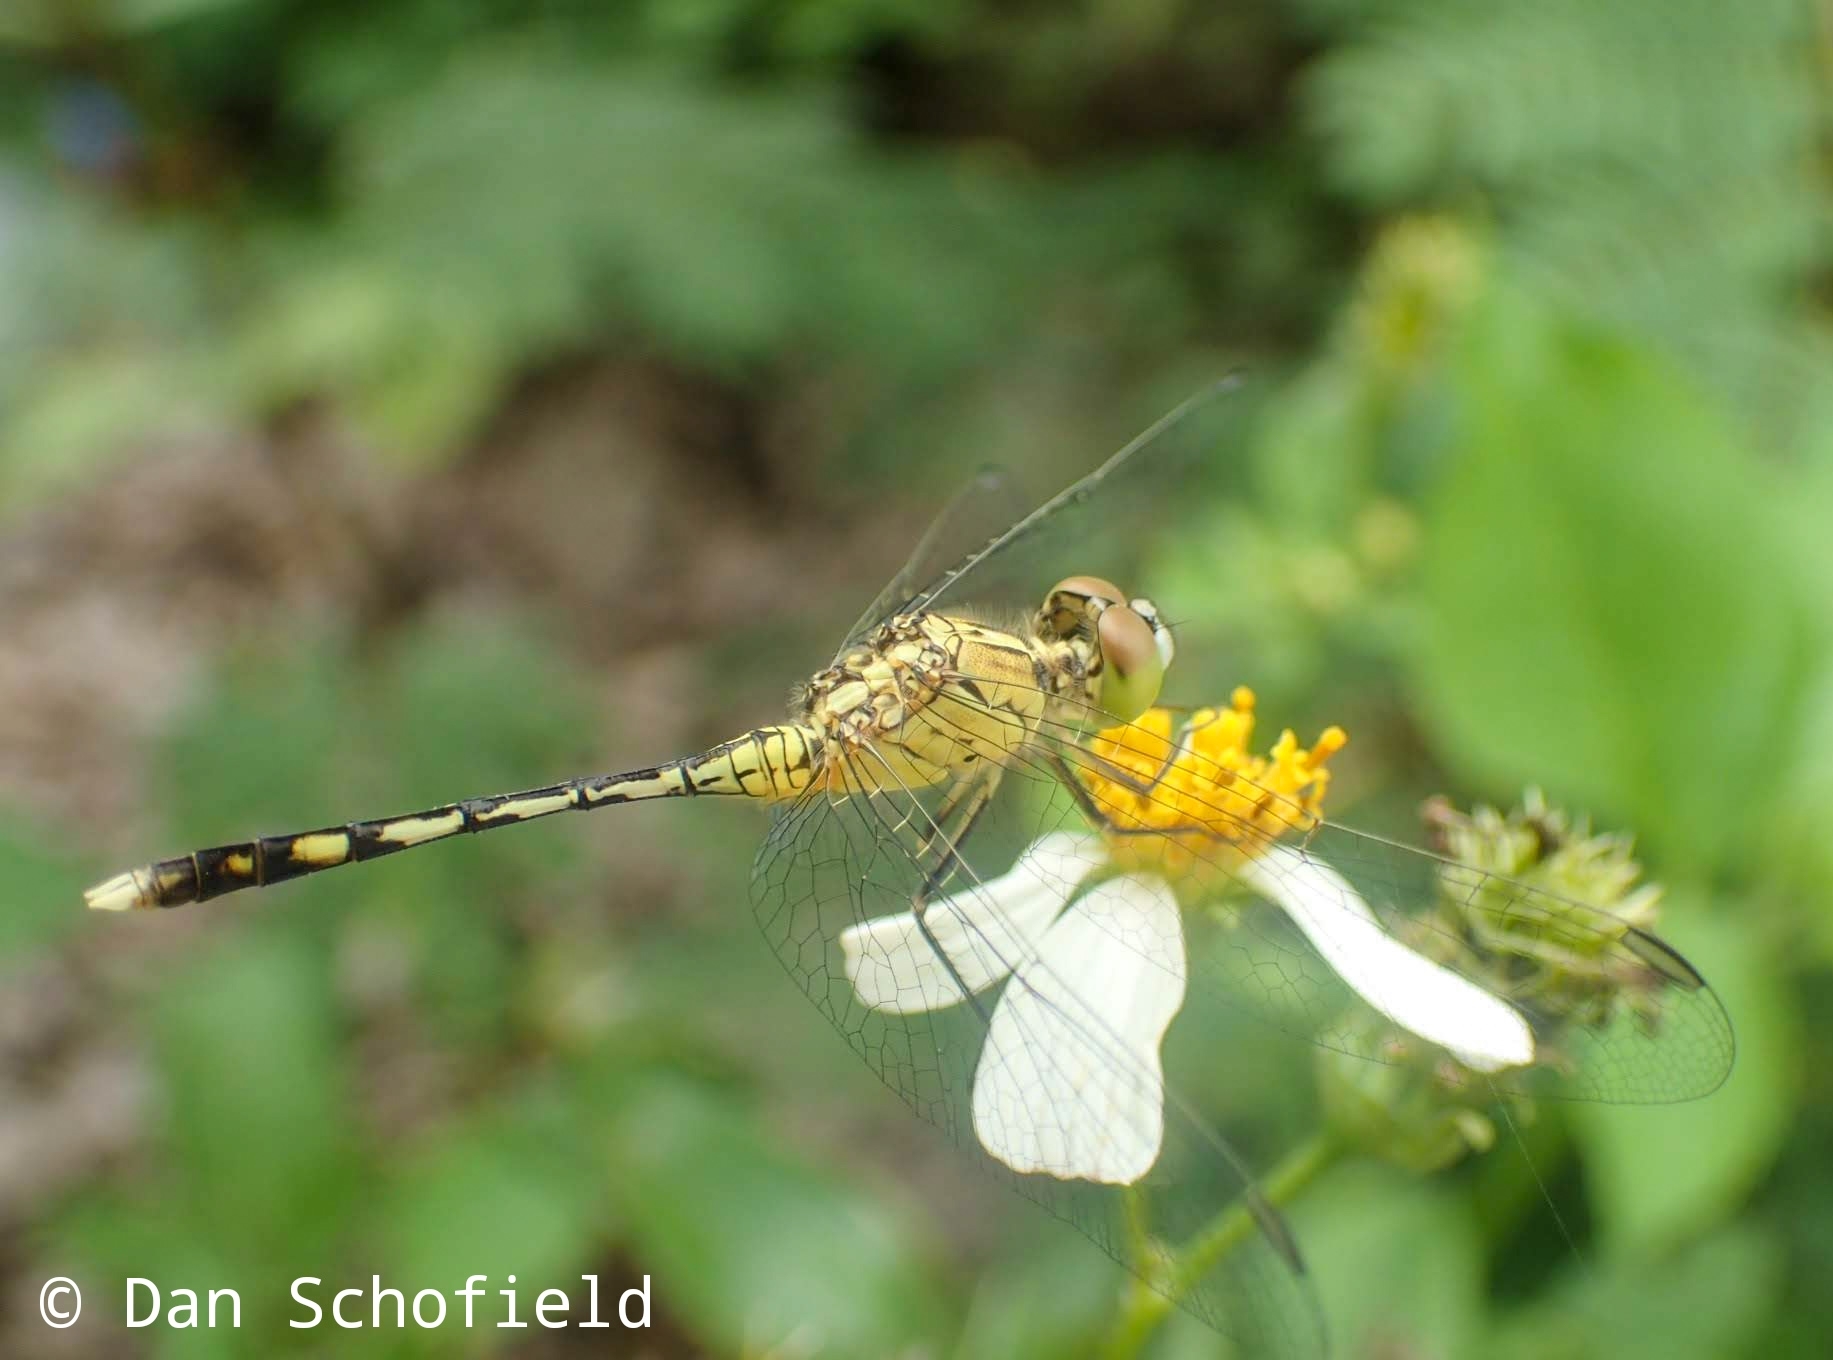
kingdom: Animalia
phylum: Arthropoda
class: Insecta
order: Odonata
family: Libellulidae
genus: Diplacodes
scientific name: Diplacodes trivialis
